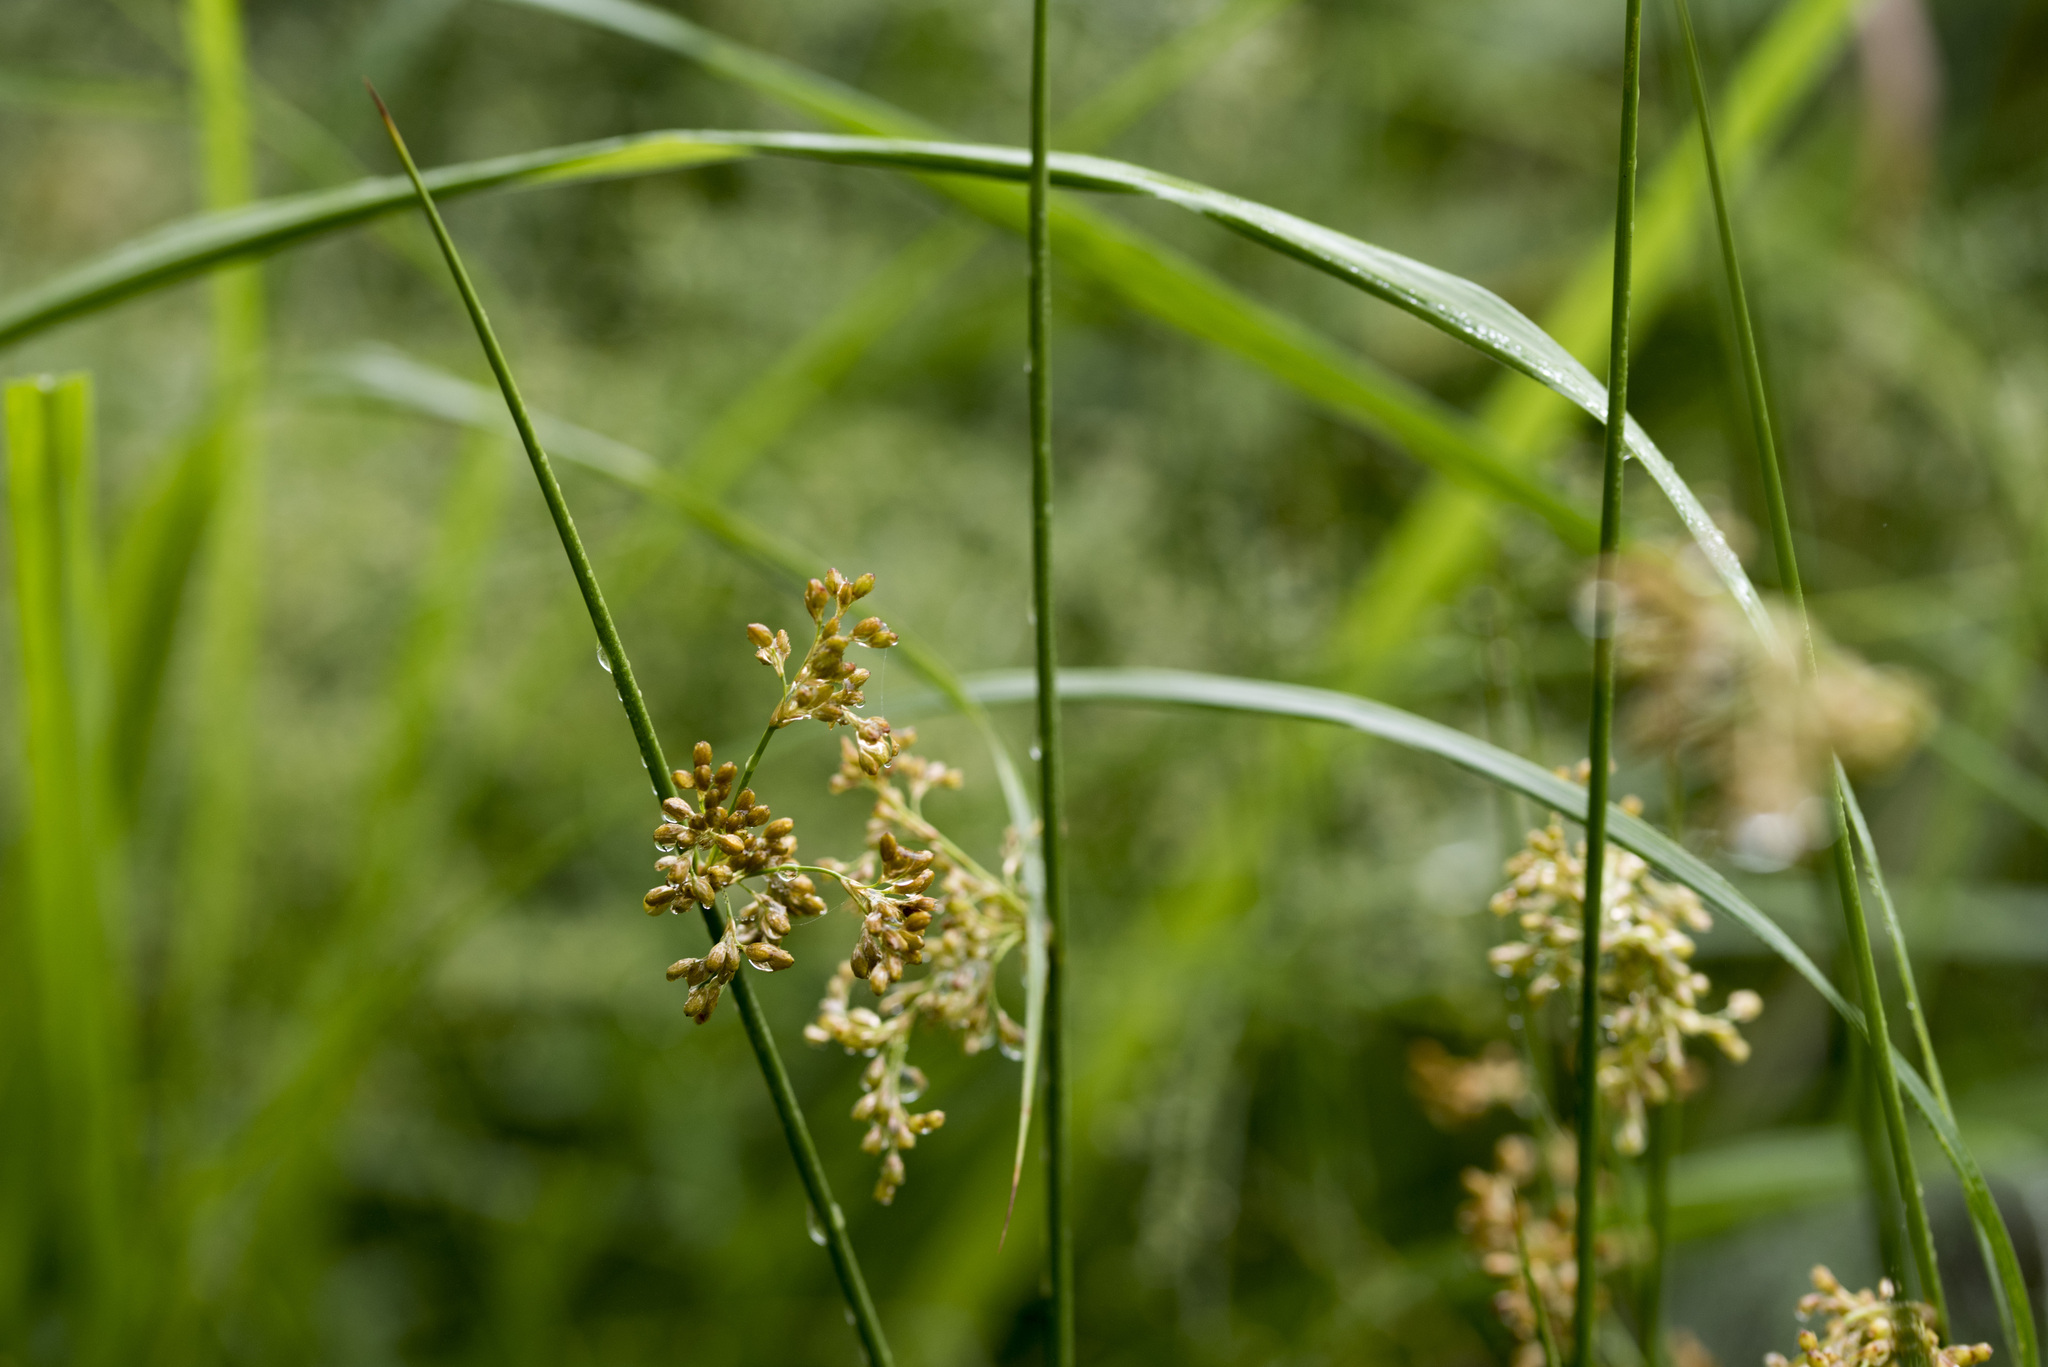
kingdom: Plantae
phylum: Tracheophyta
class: Liliopsida
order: Poales
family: Juncaceae
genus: Juncus
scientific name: Juncus effusus
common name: Soft rush
